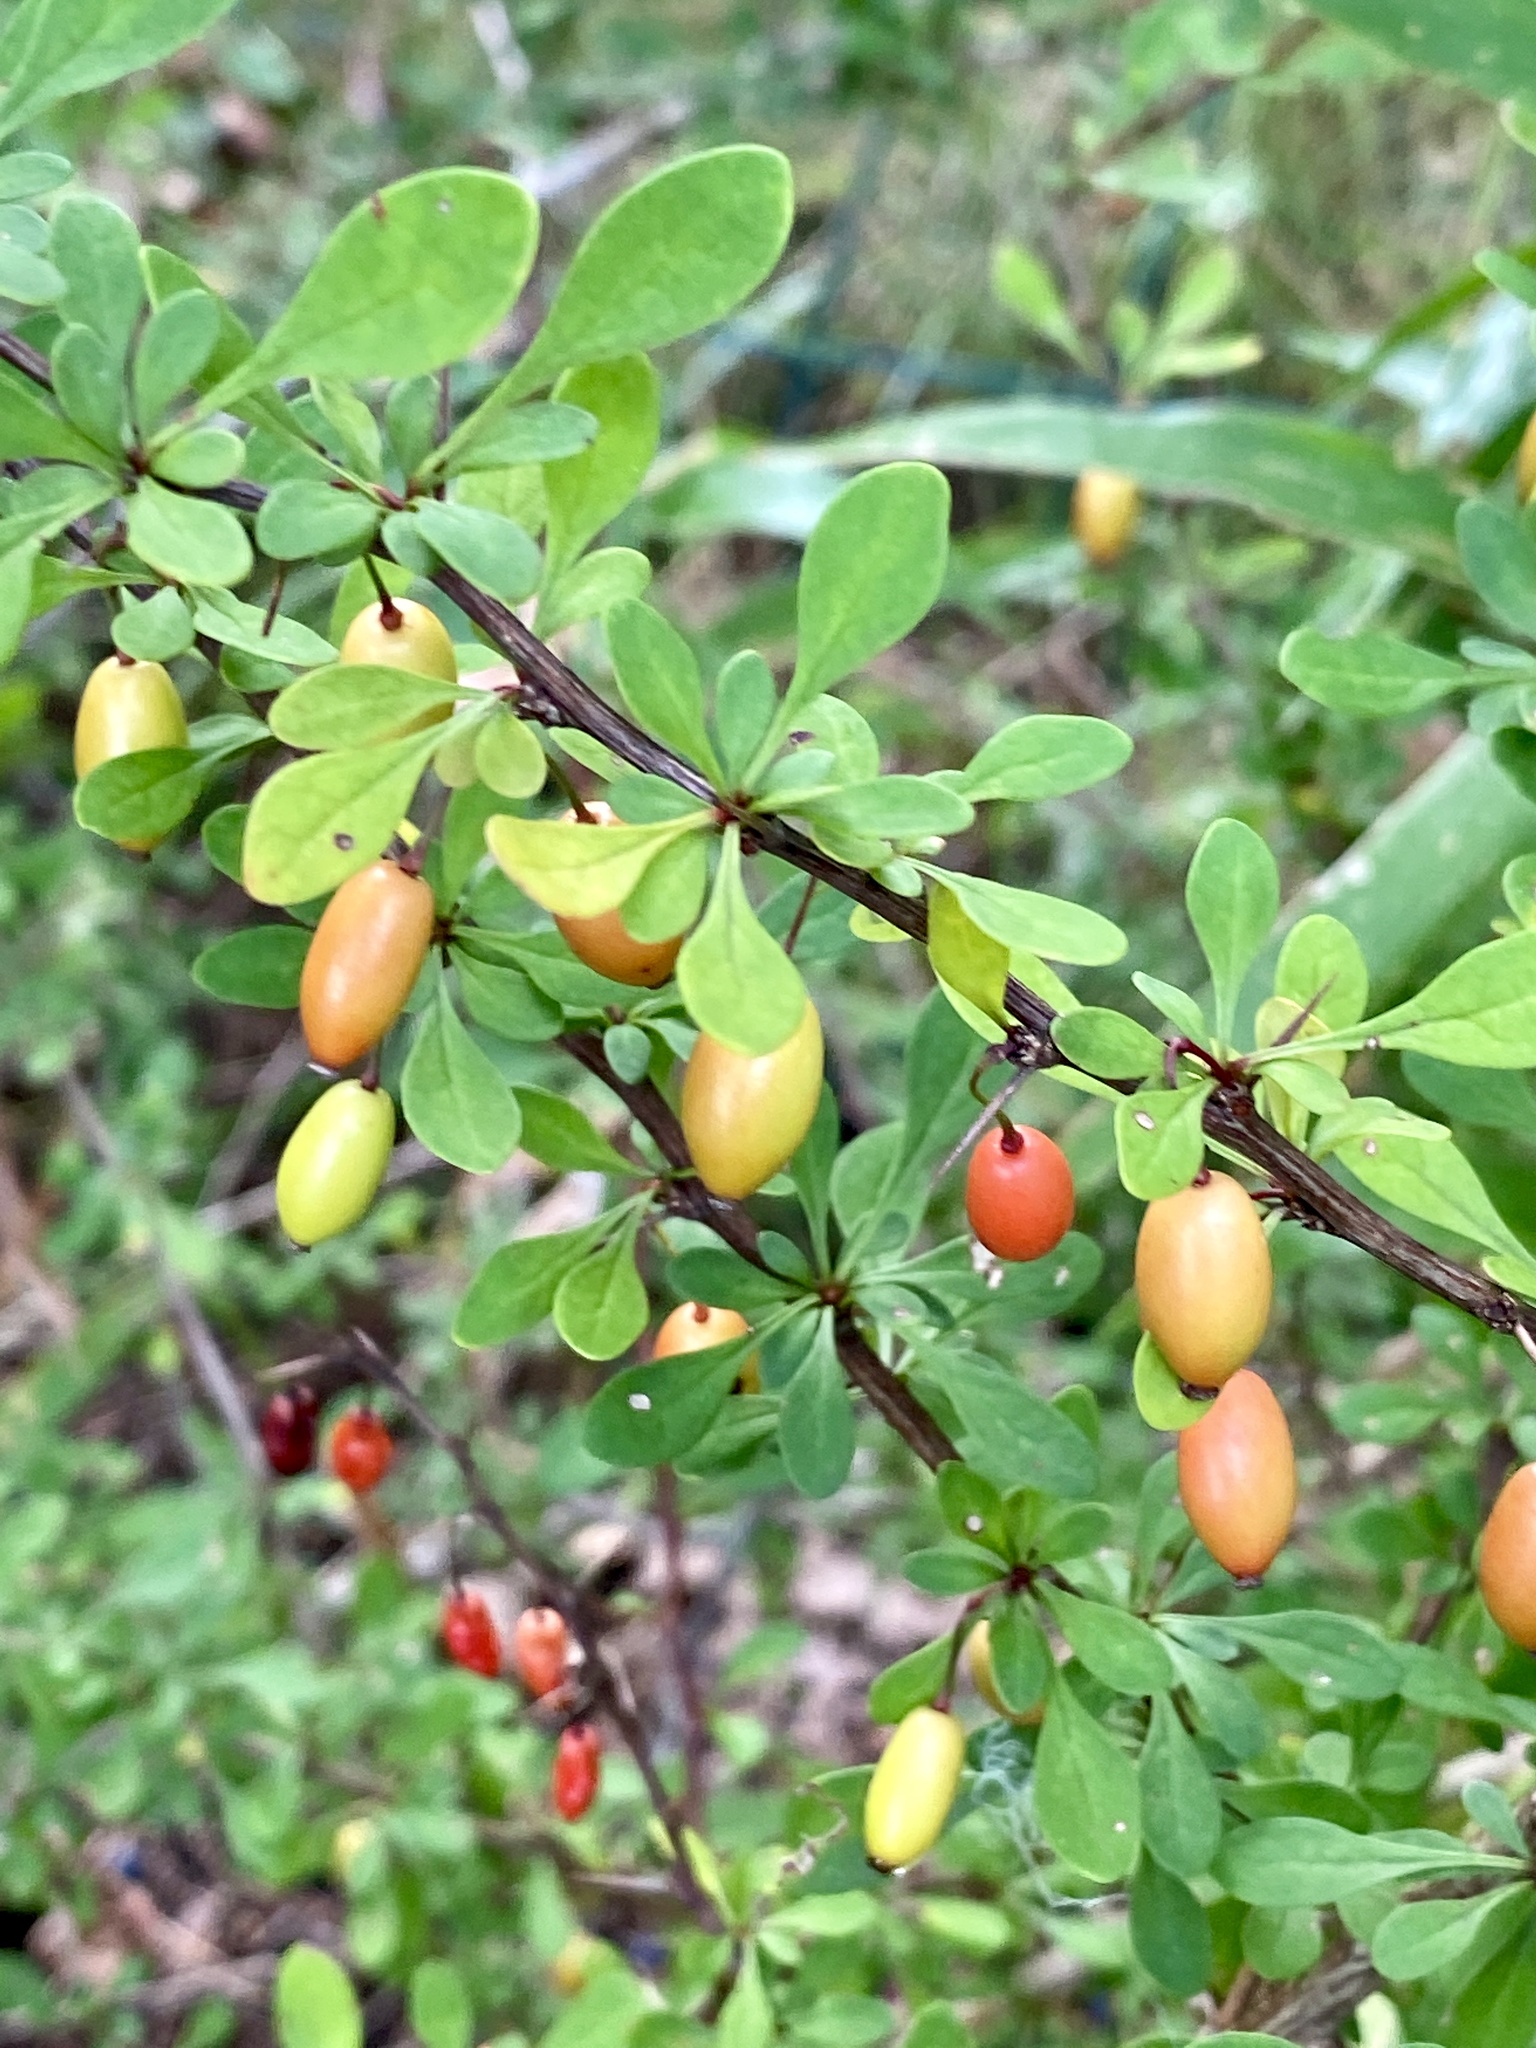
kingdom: Plantae
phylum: Tracheophyta
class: Magnoliopsida
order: Ranunculales
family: Berberidaceae
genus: Berberis
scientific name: Berberis thunbergii
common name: Japanese barberry
